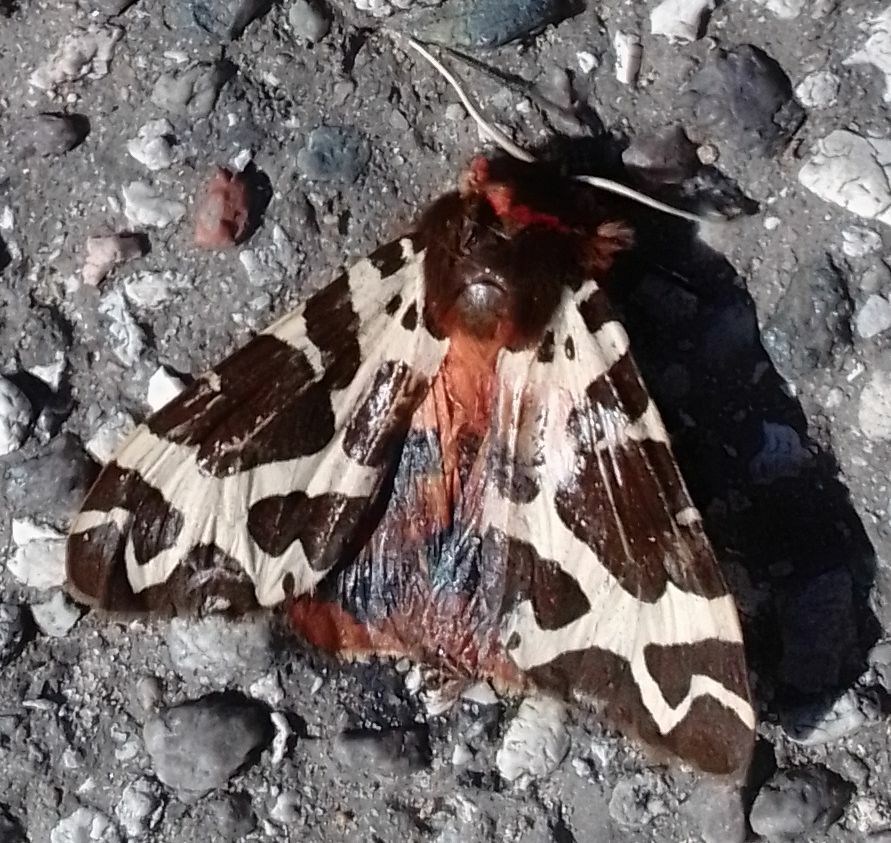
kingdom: Animalia
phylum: Arthropoda
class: Insecta
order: Lepidoptera
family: Erebidae
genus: Arctia
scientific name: Arctia caja
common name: Garden tiger
